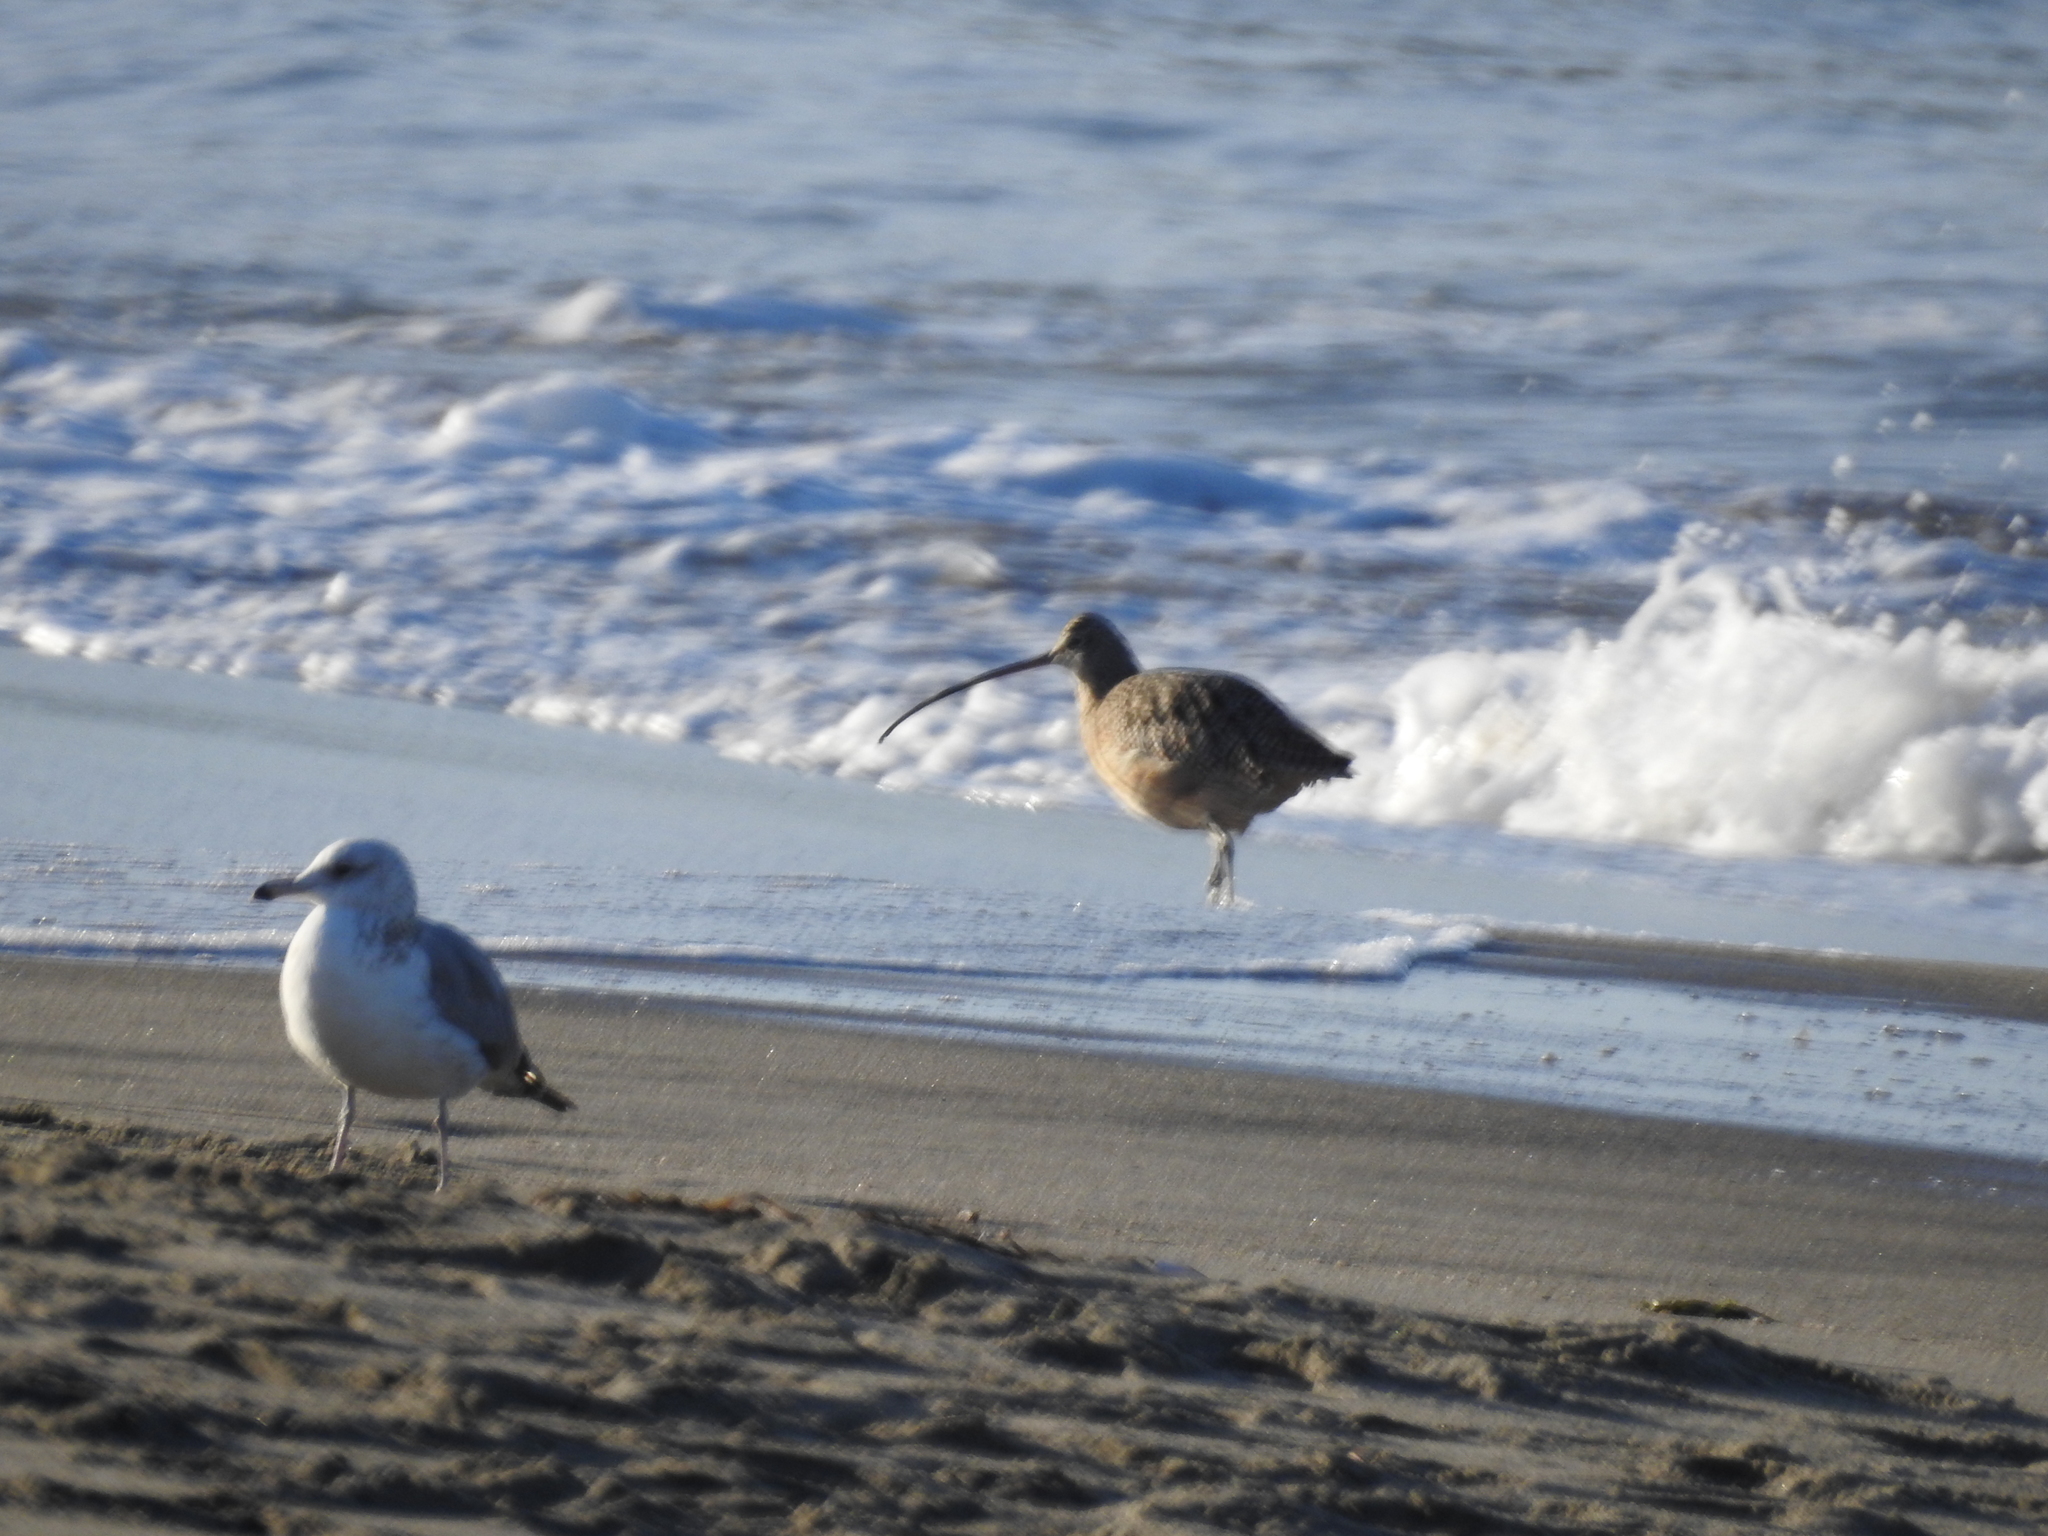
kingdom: Animalia
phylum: Chordata
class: Aves
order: Charadriiformes
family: Scolopacidae
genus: Numenius
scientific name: Numenius americanus
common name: Long-billed curlew
